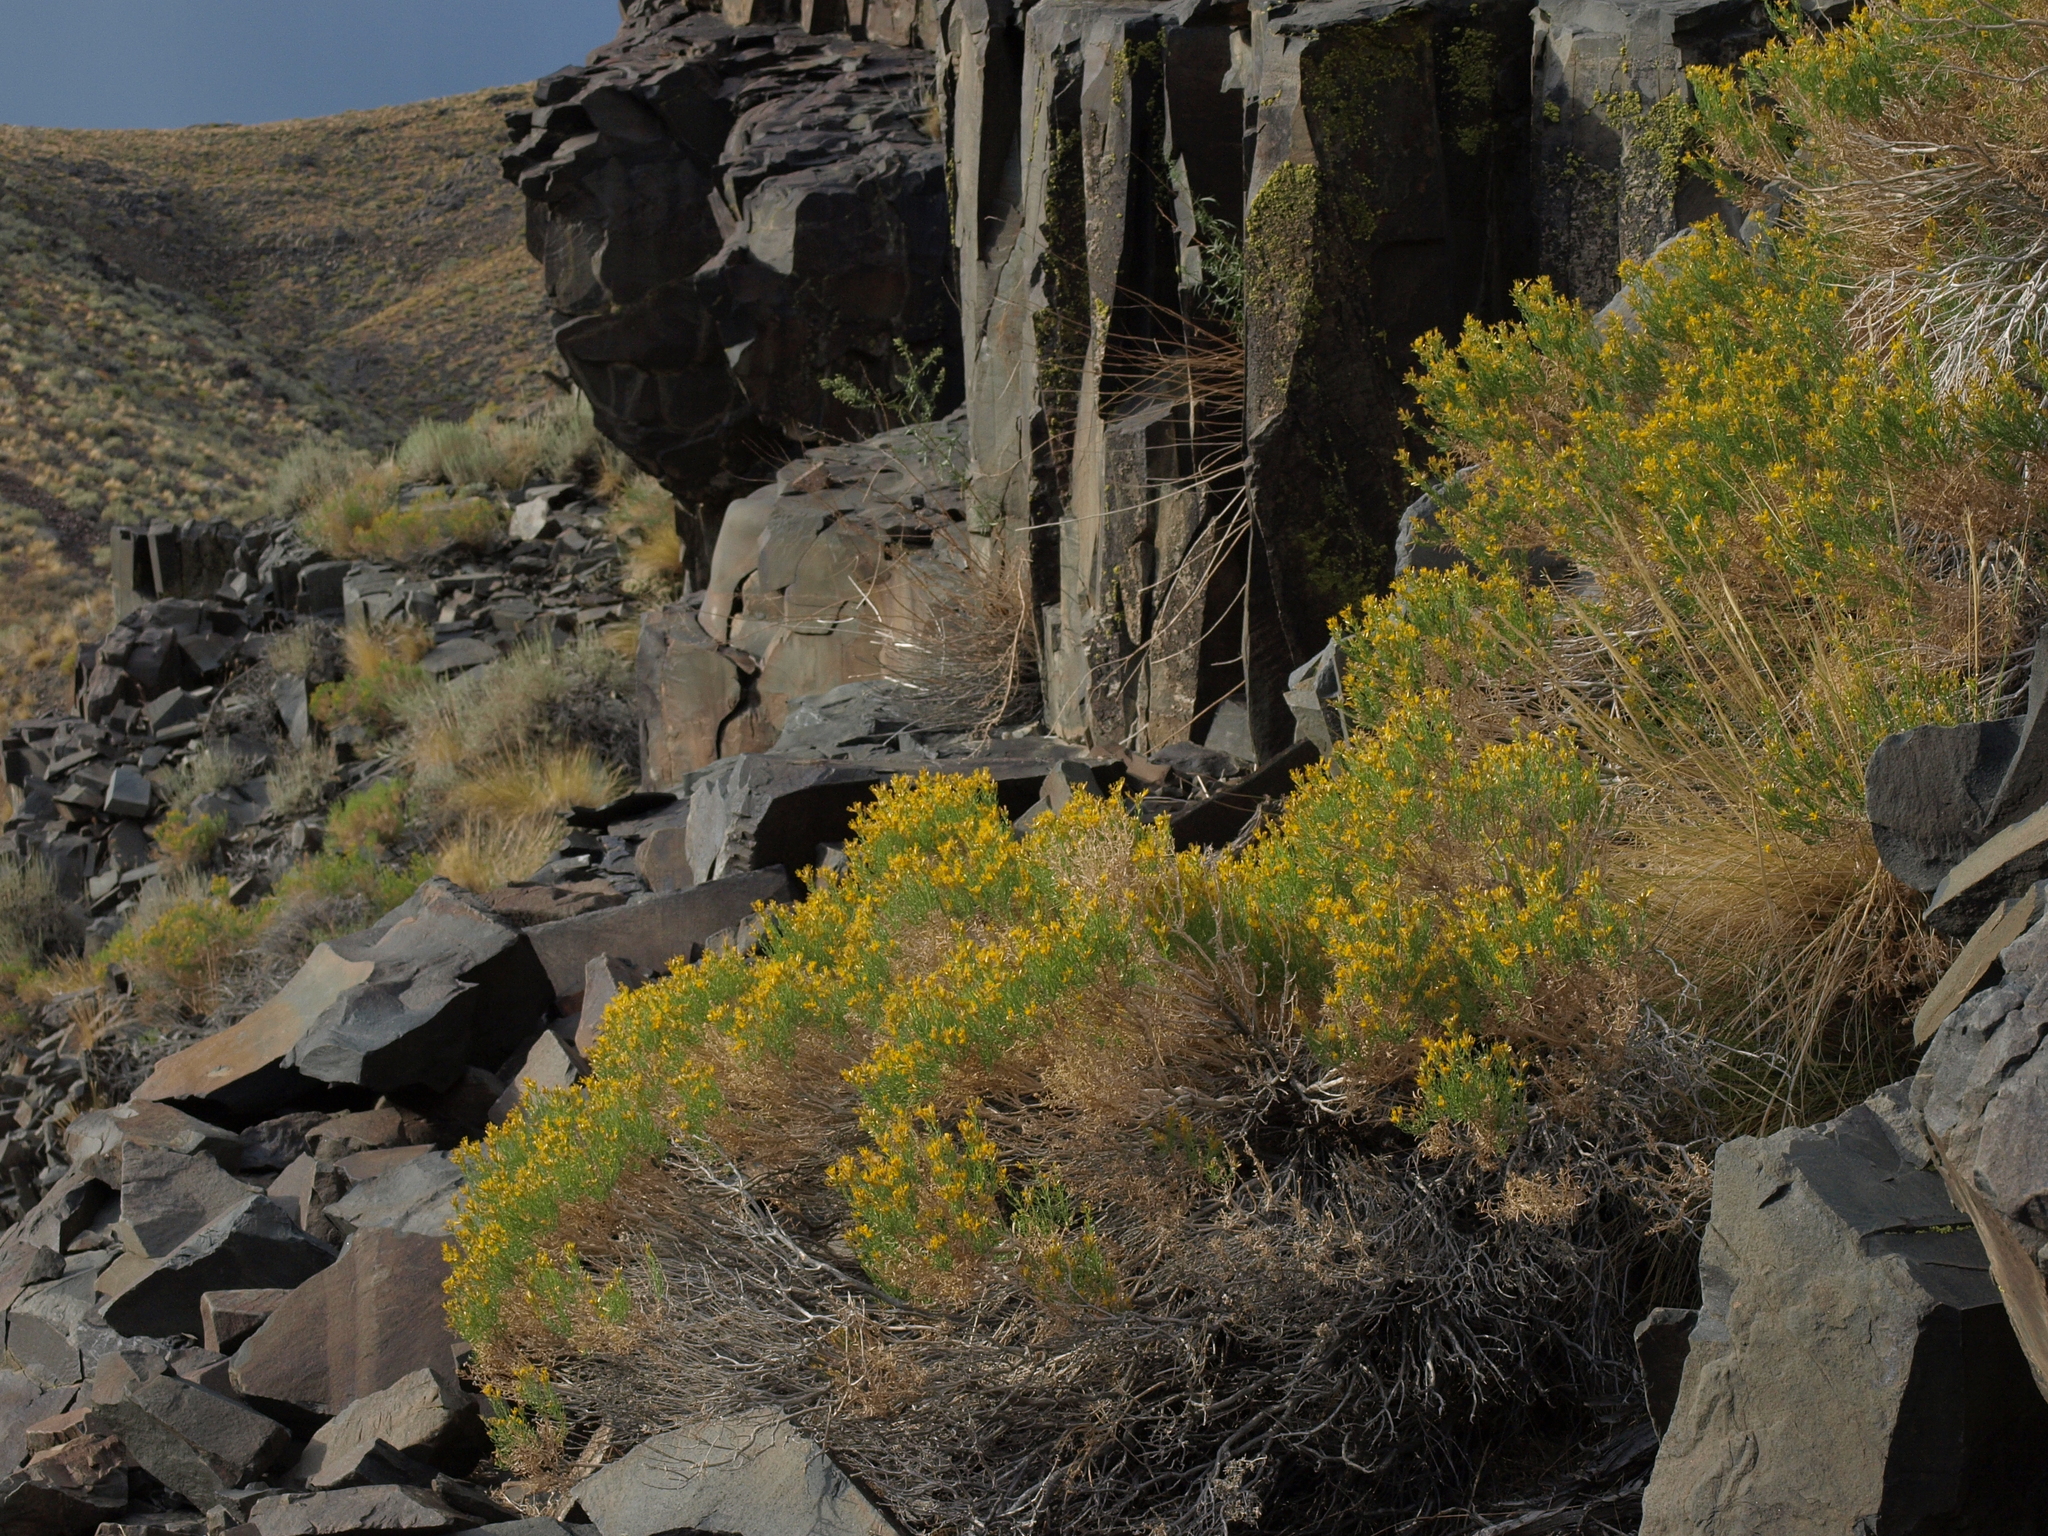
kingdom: Plantae
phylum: Tracheophyta
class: Magnoliopsida
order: Asterales
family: Asteraceae
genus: Ericameria
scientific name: Ericameria teretifolia
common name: Round-leaf rabbitbrush
